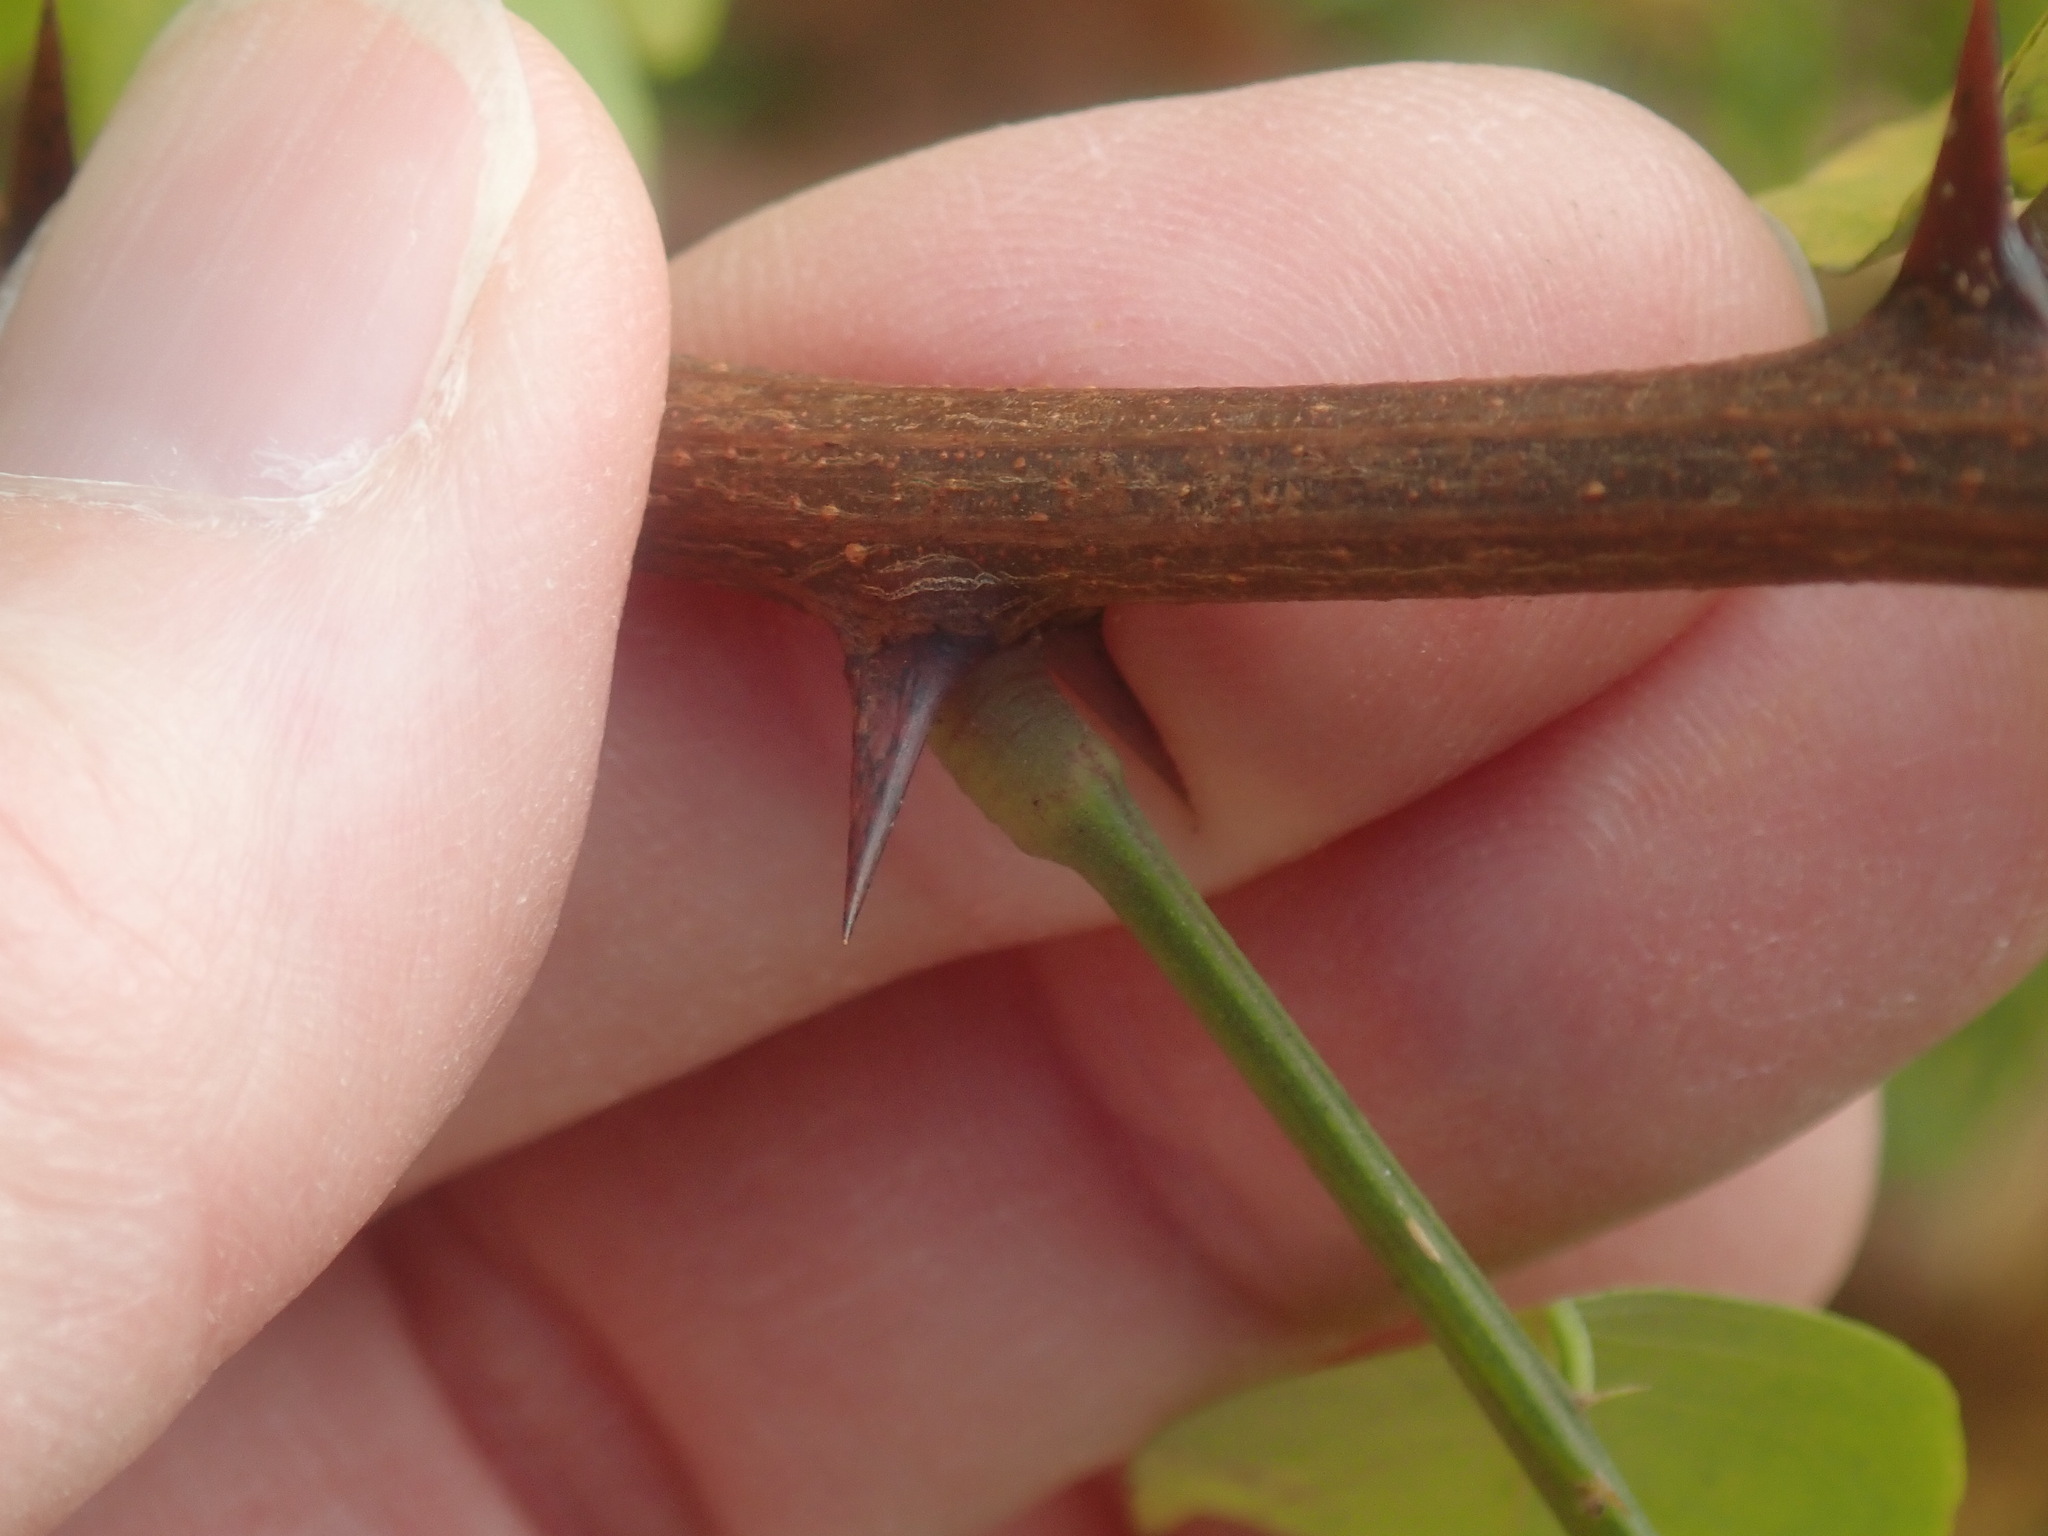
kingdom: Plantae
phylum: Tracheophyta
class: Magnoliopsida
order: Fabales
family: Fabaceae
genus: Robinia
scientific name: Robinia pseudoacacia
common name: Black locust
